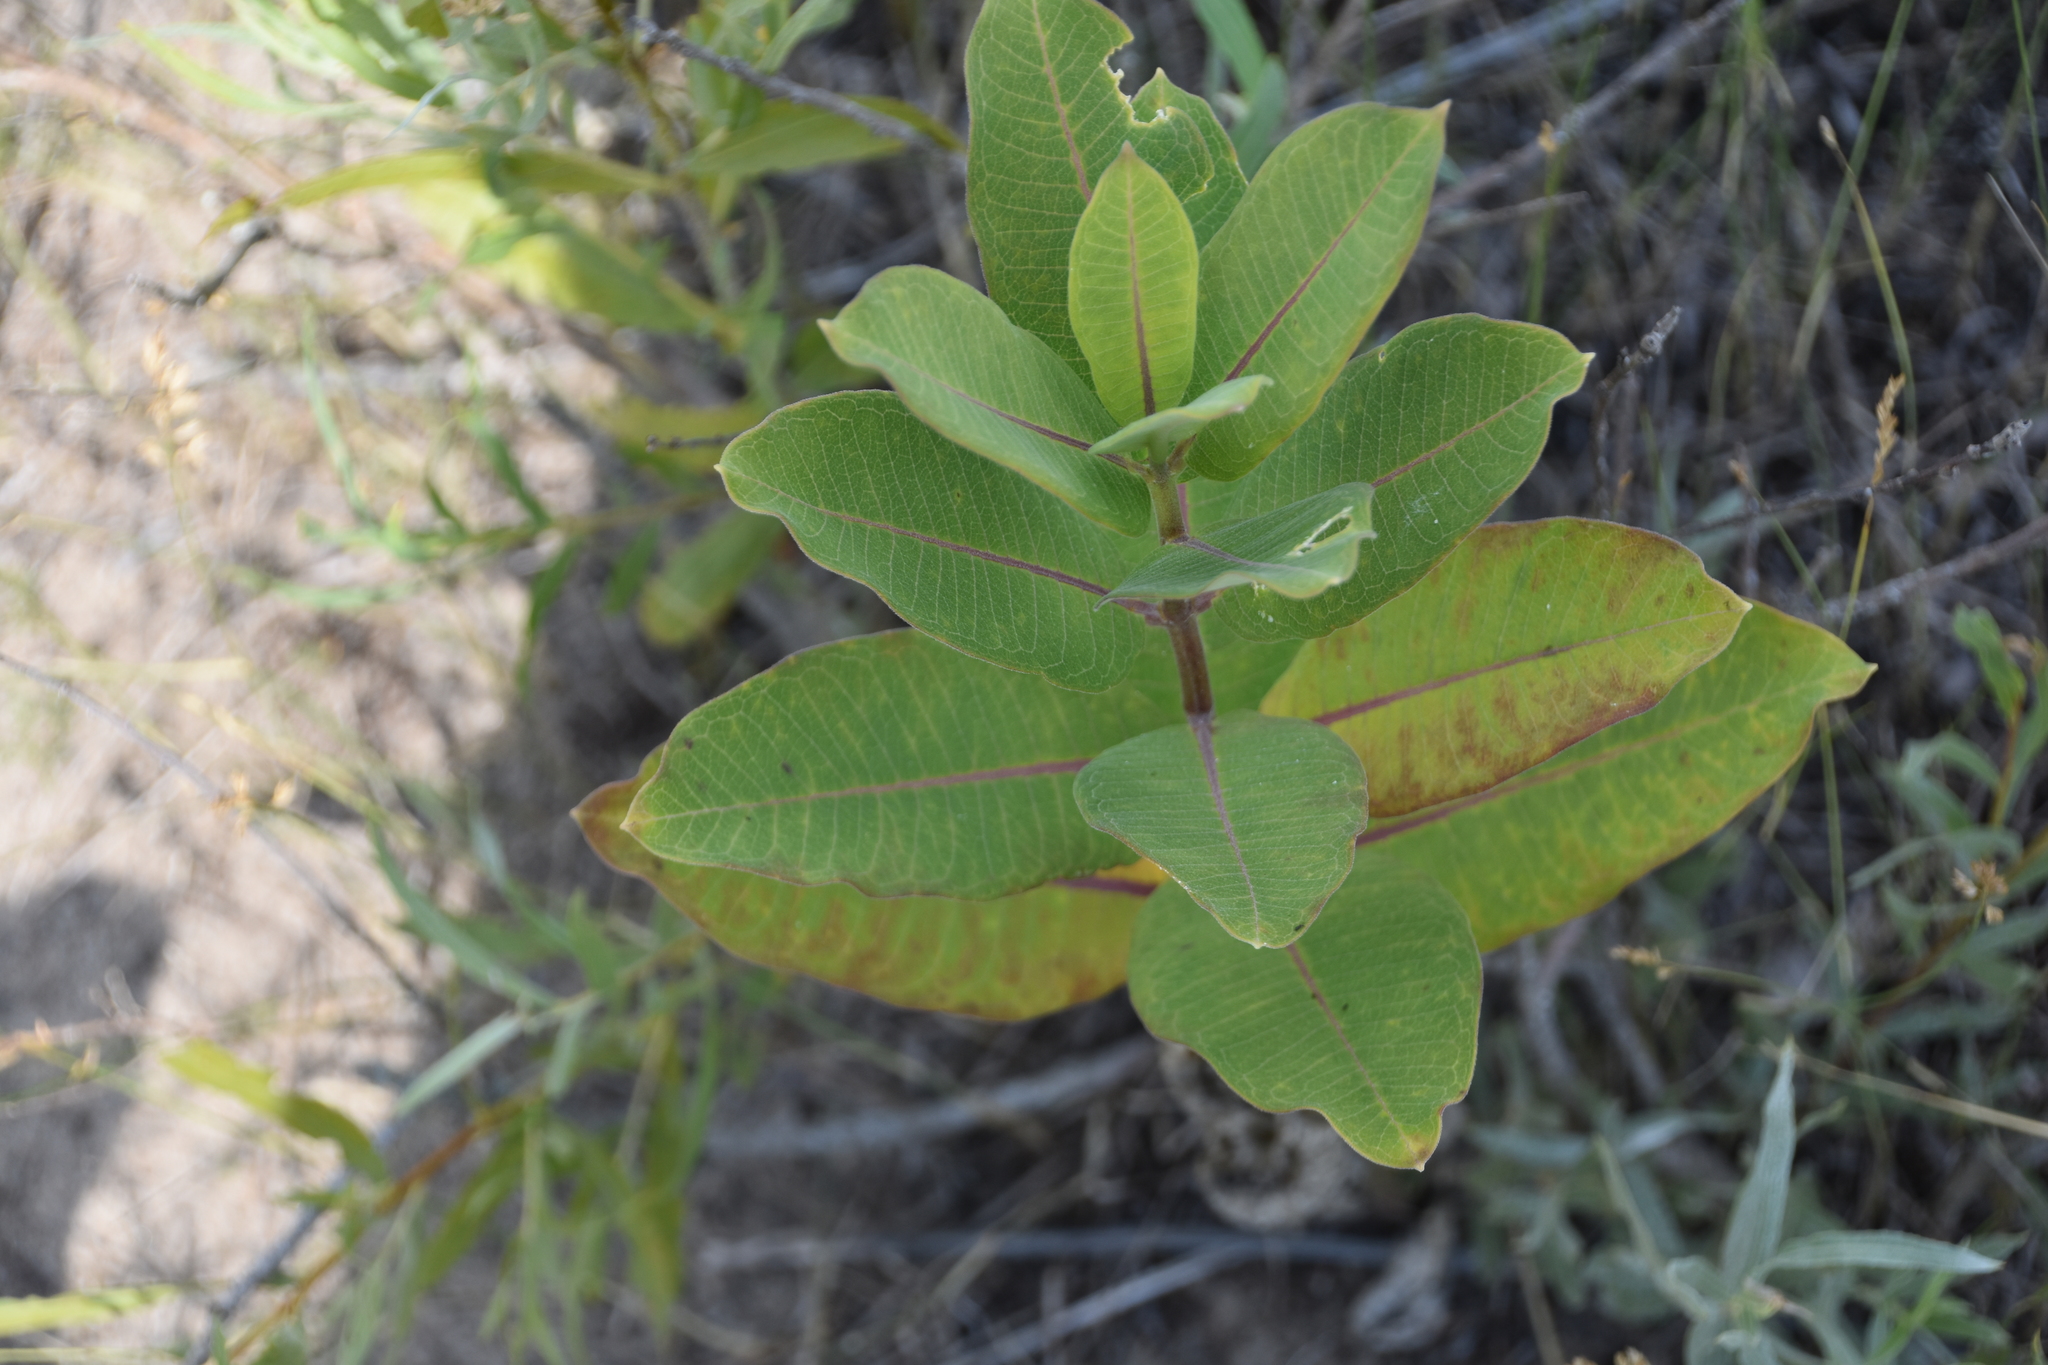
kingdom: Plantae
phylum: Tracheophyta
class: Magnoliopsida
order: Gentianales
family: Apocynaceae
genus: Asclepias
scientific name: Asclepias syriaca
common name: Common milkweed
